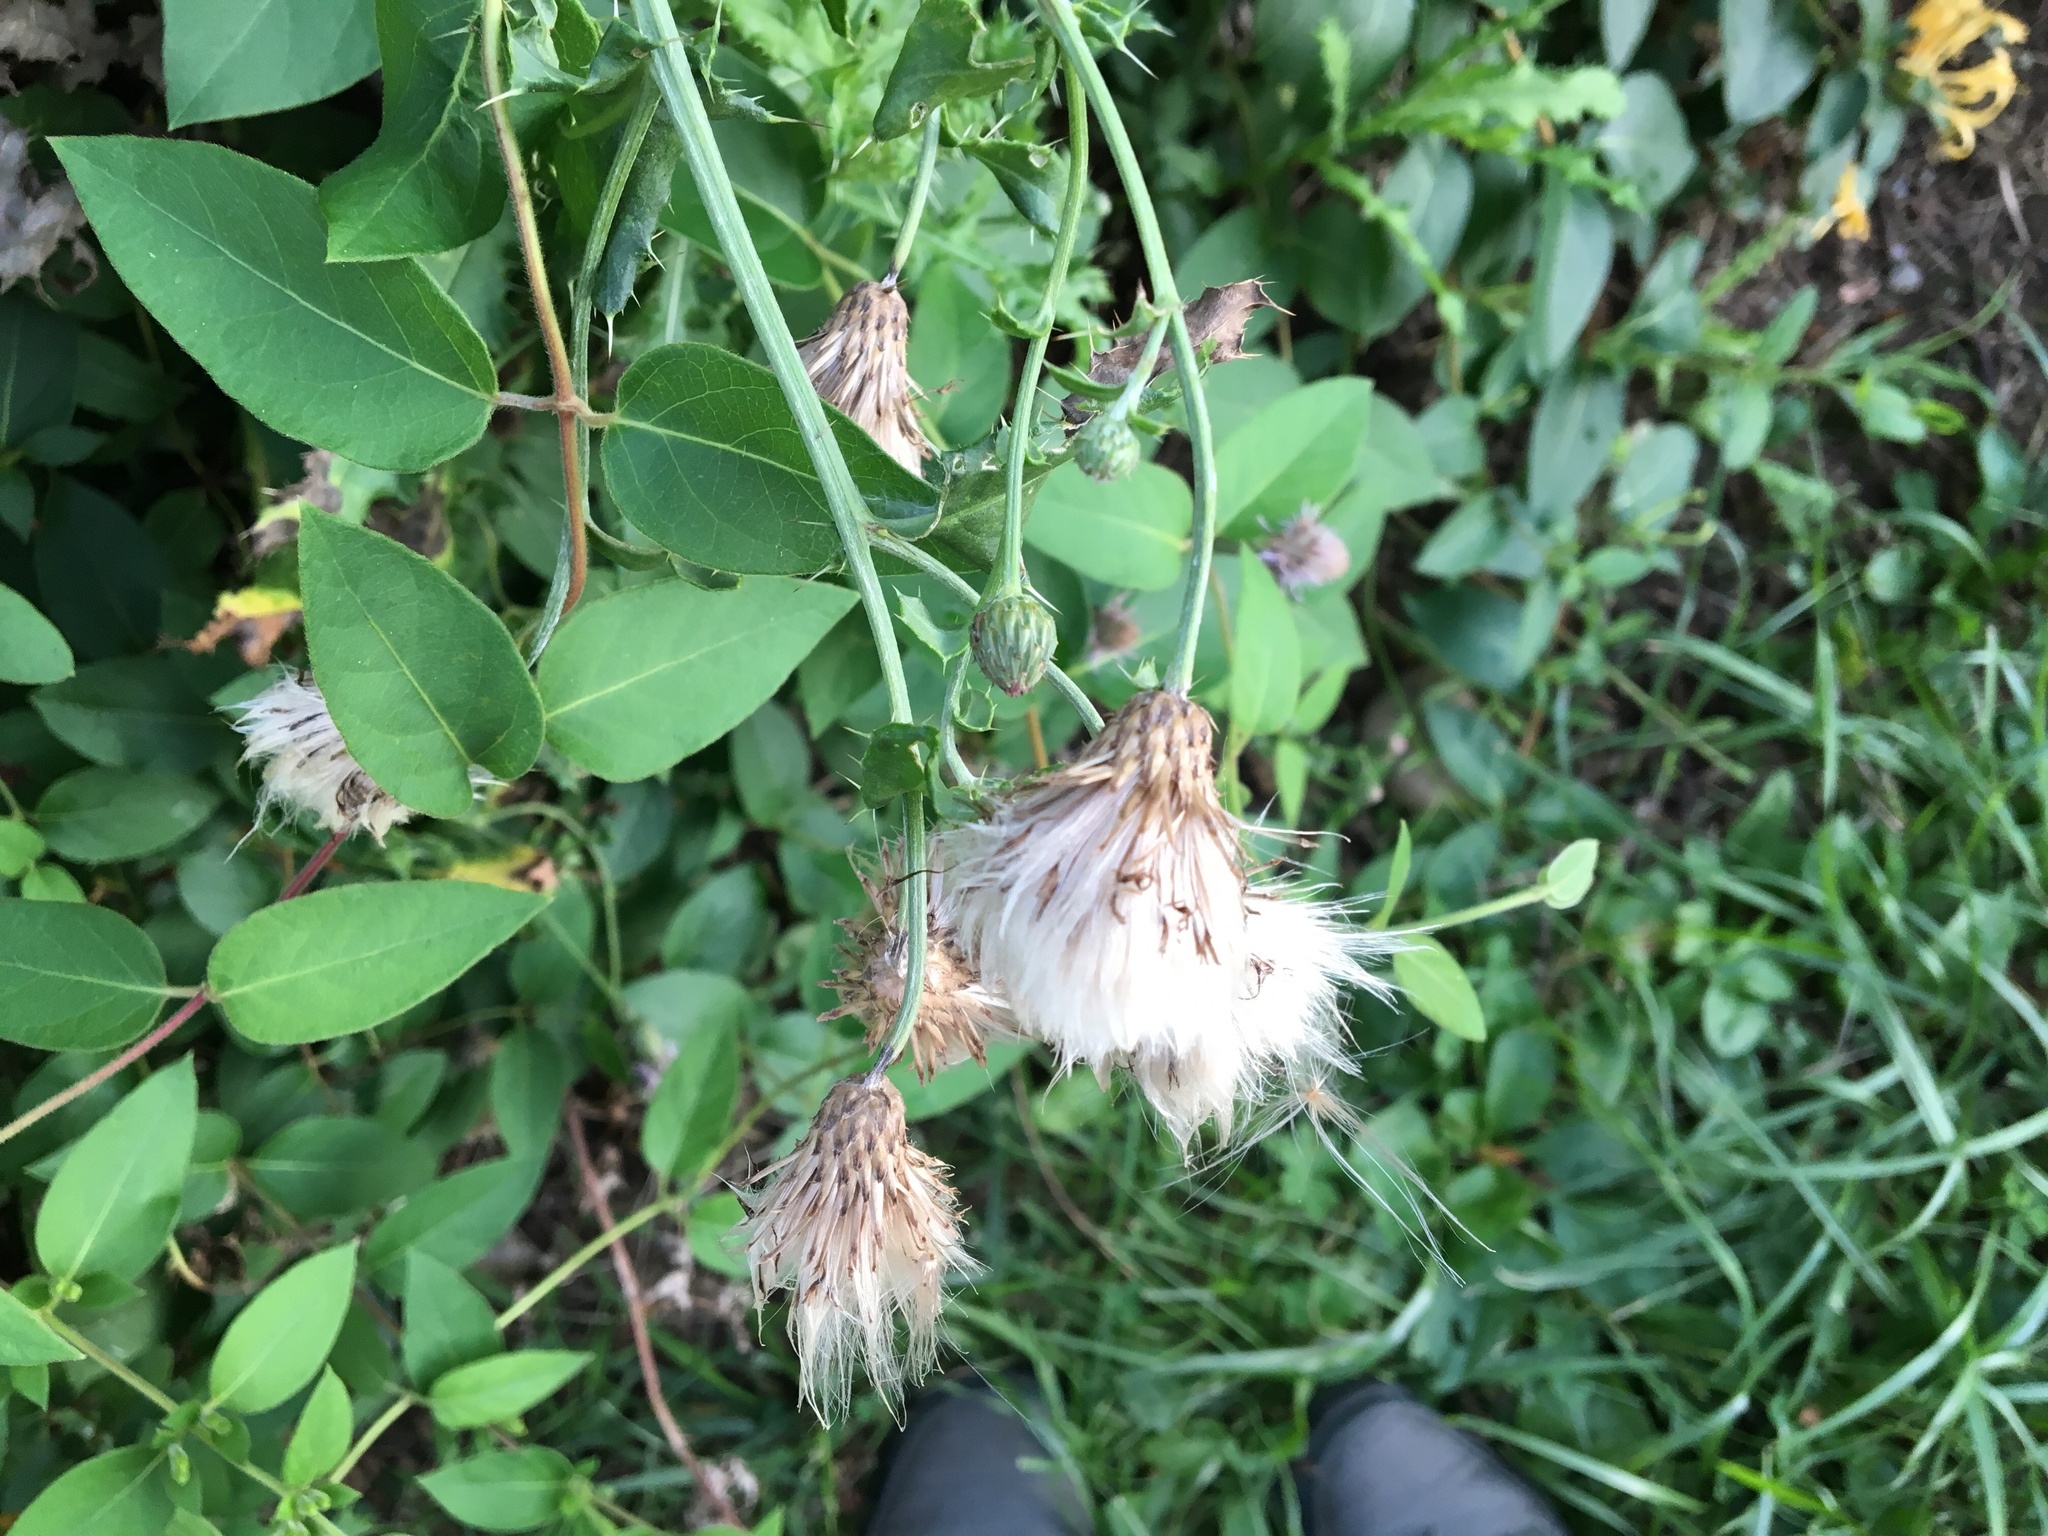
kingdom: Plantae
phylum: Tracheophyta
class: Magnoliopsida
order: Asterales
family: Asteraceae
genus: Cirsium
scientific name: Cirsium arvense
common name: Creeping thistle
